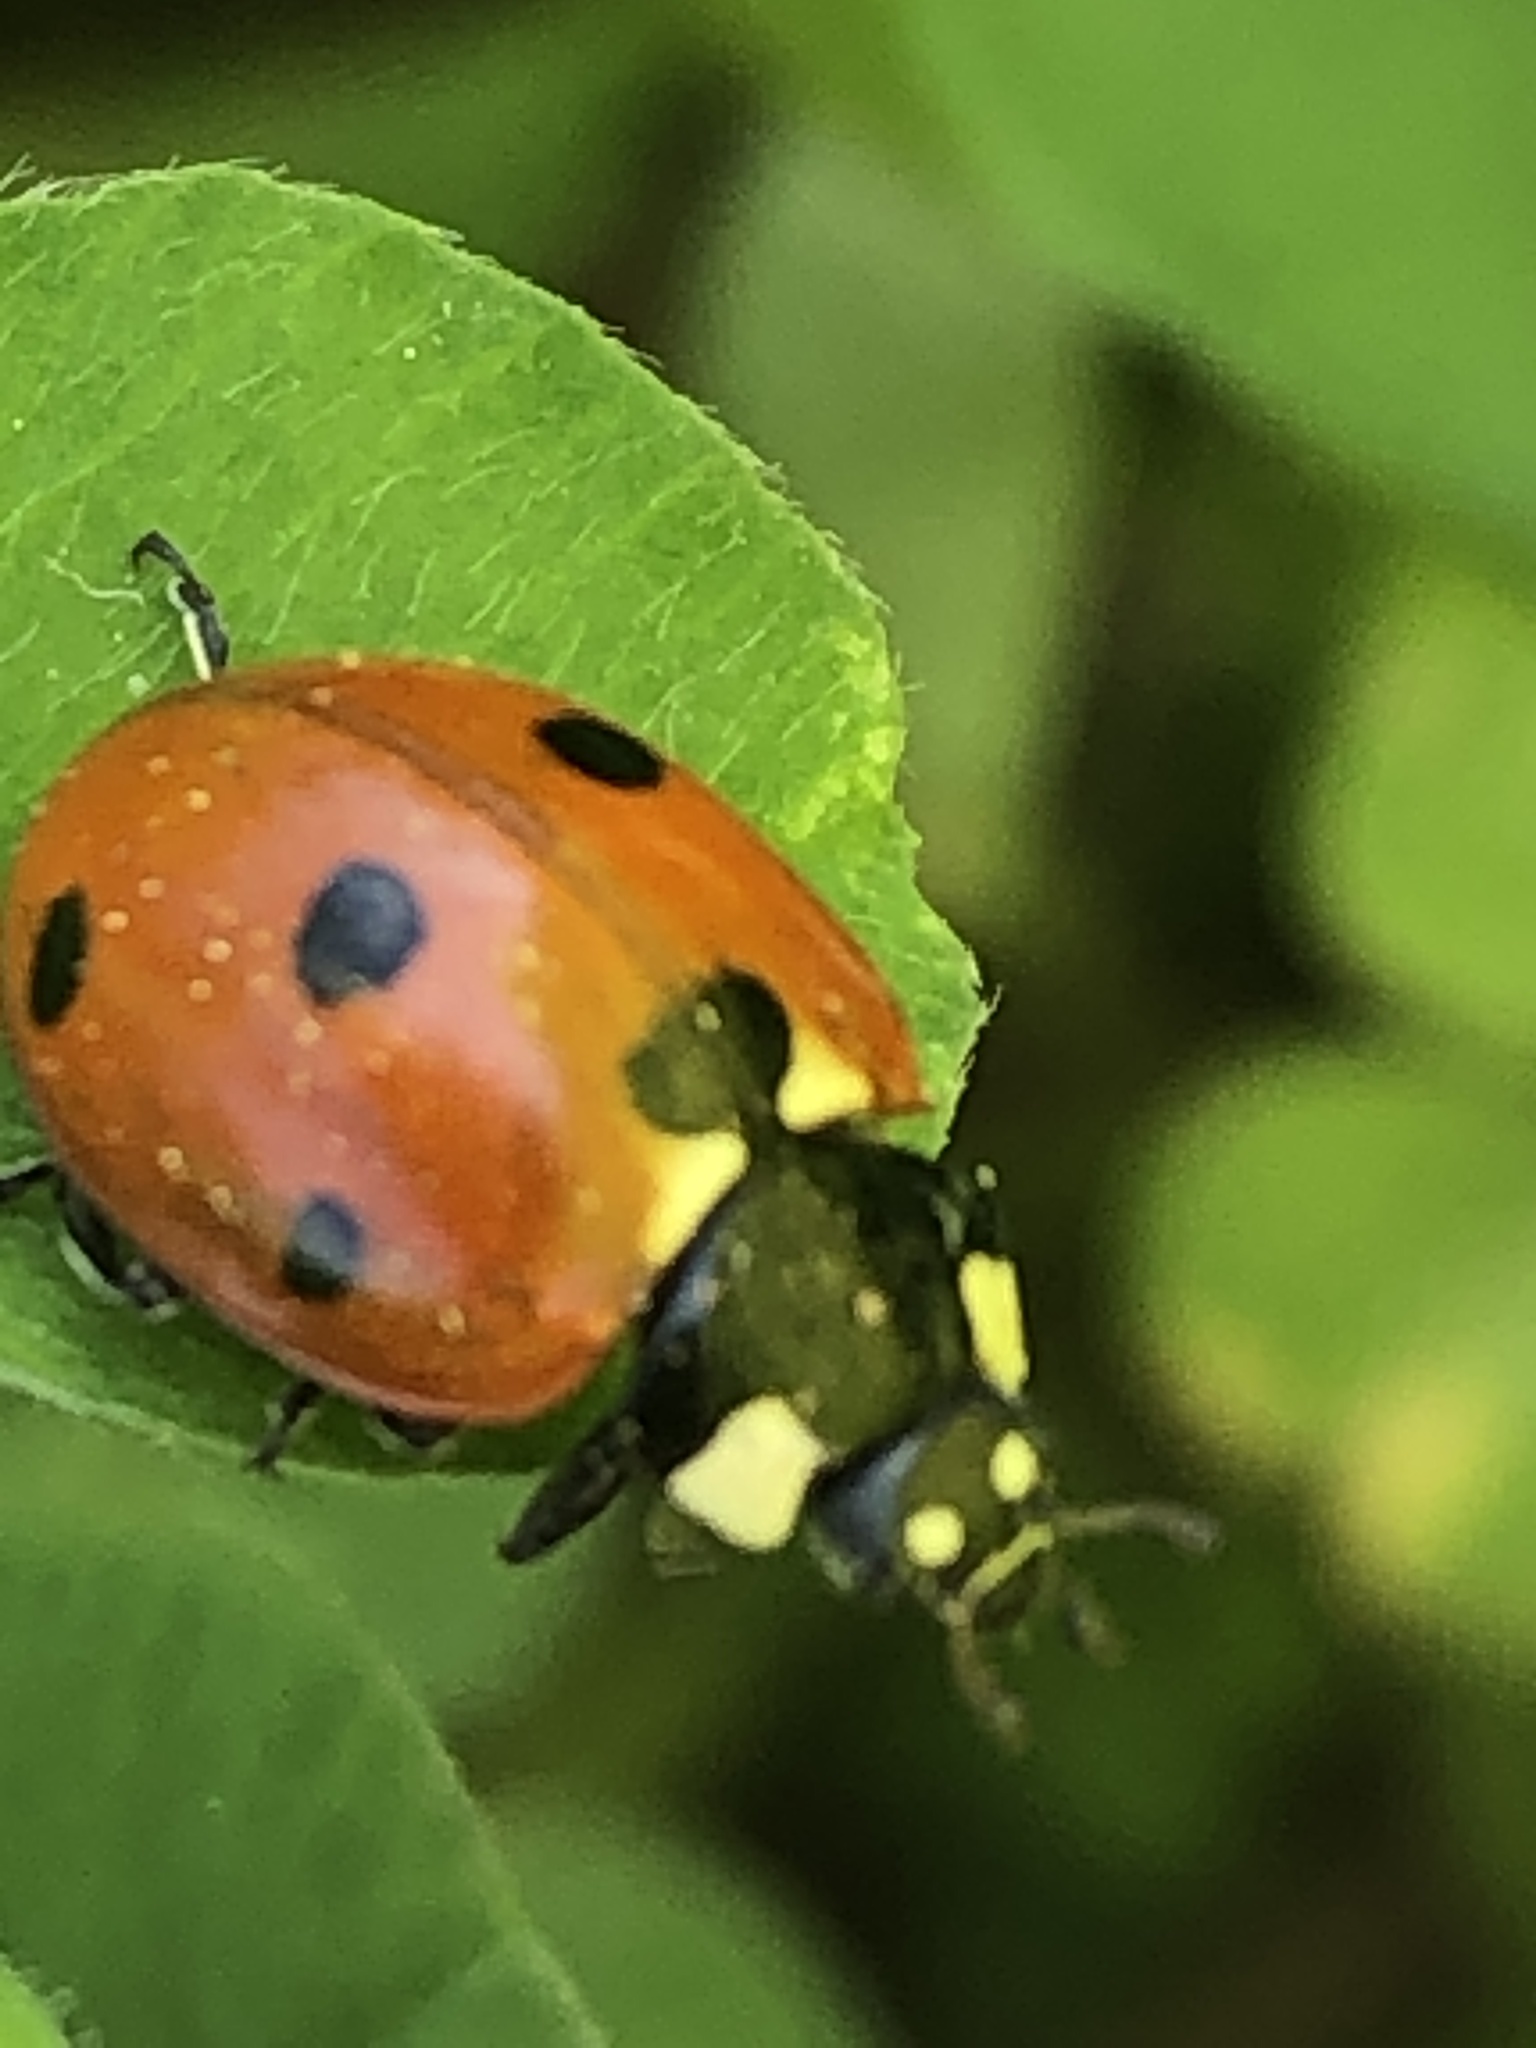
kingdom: Animalia
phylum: Arthropoda
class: Insecta
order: Coleoptera
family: Coccinellidae
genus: Coccinella
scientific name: Coccinella septempunctata
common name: Sevenspotted lady beetle
